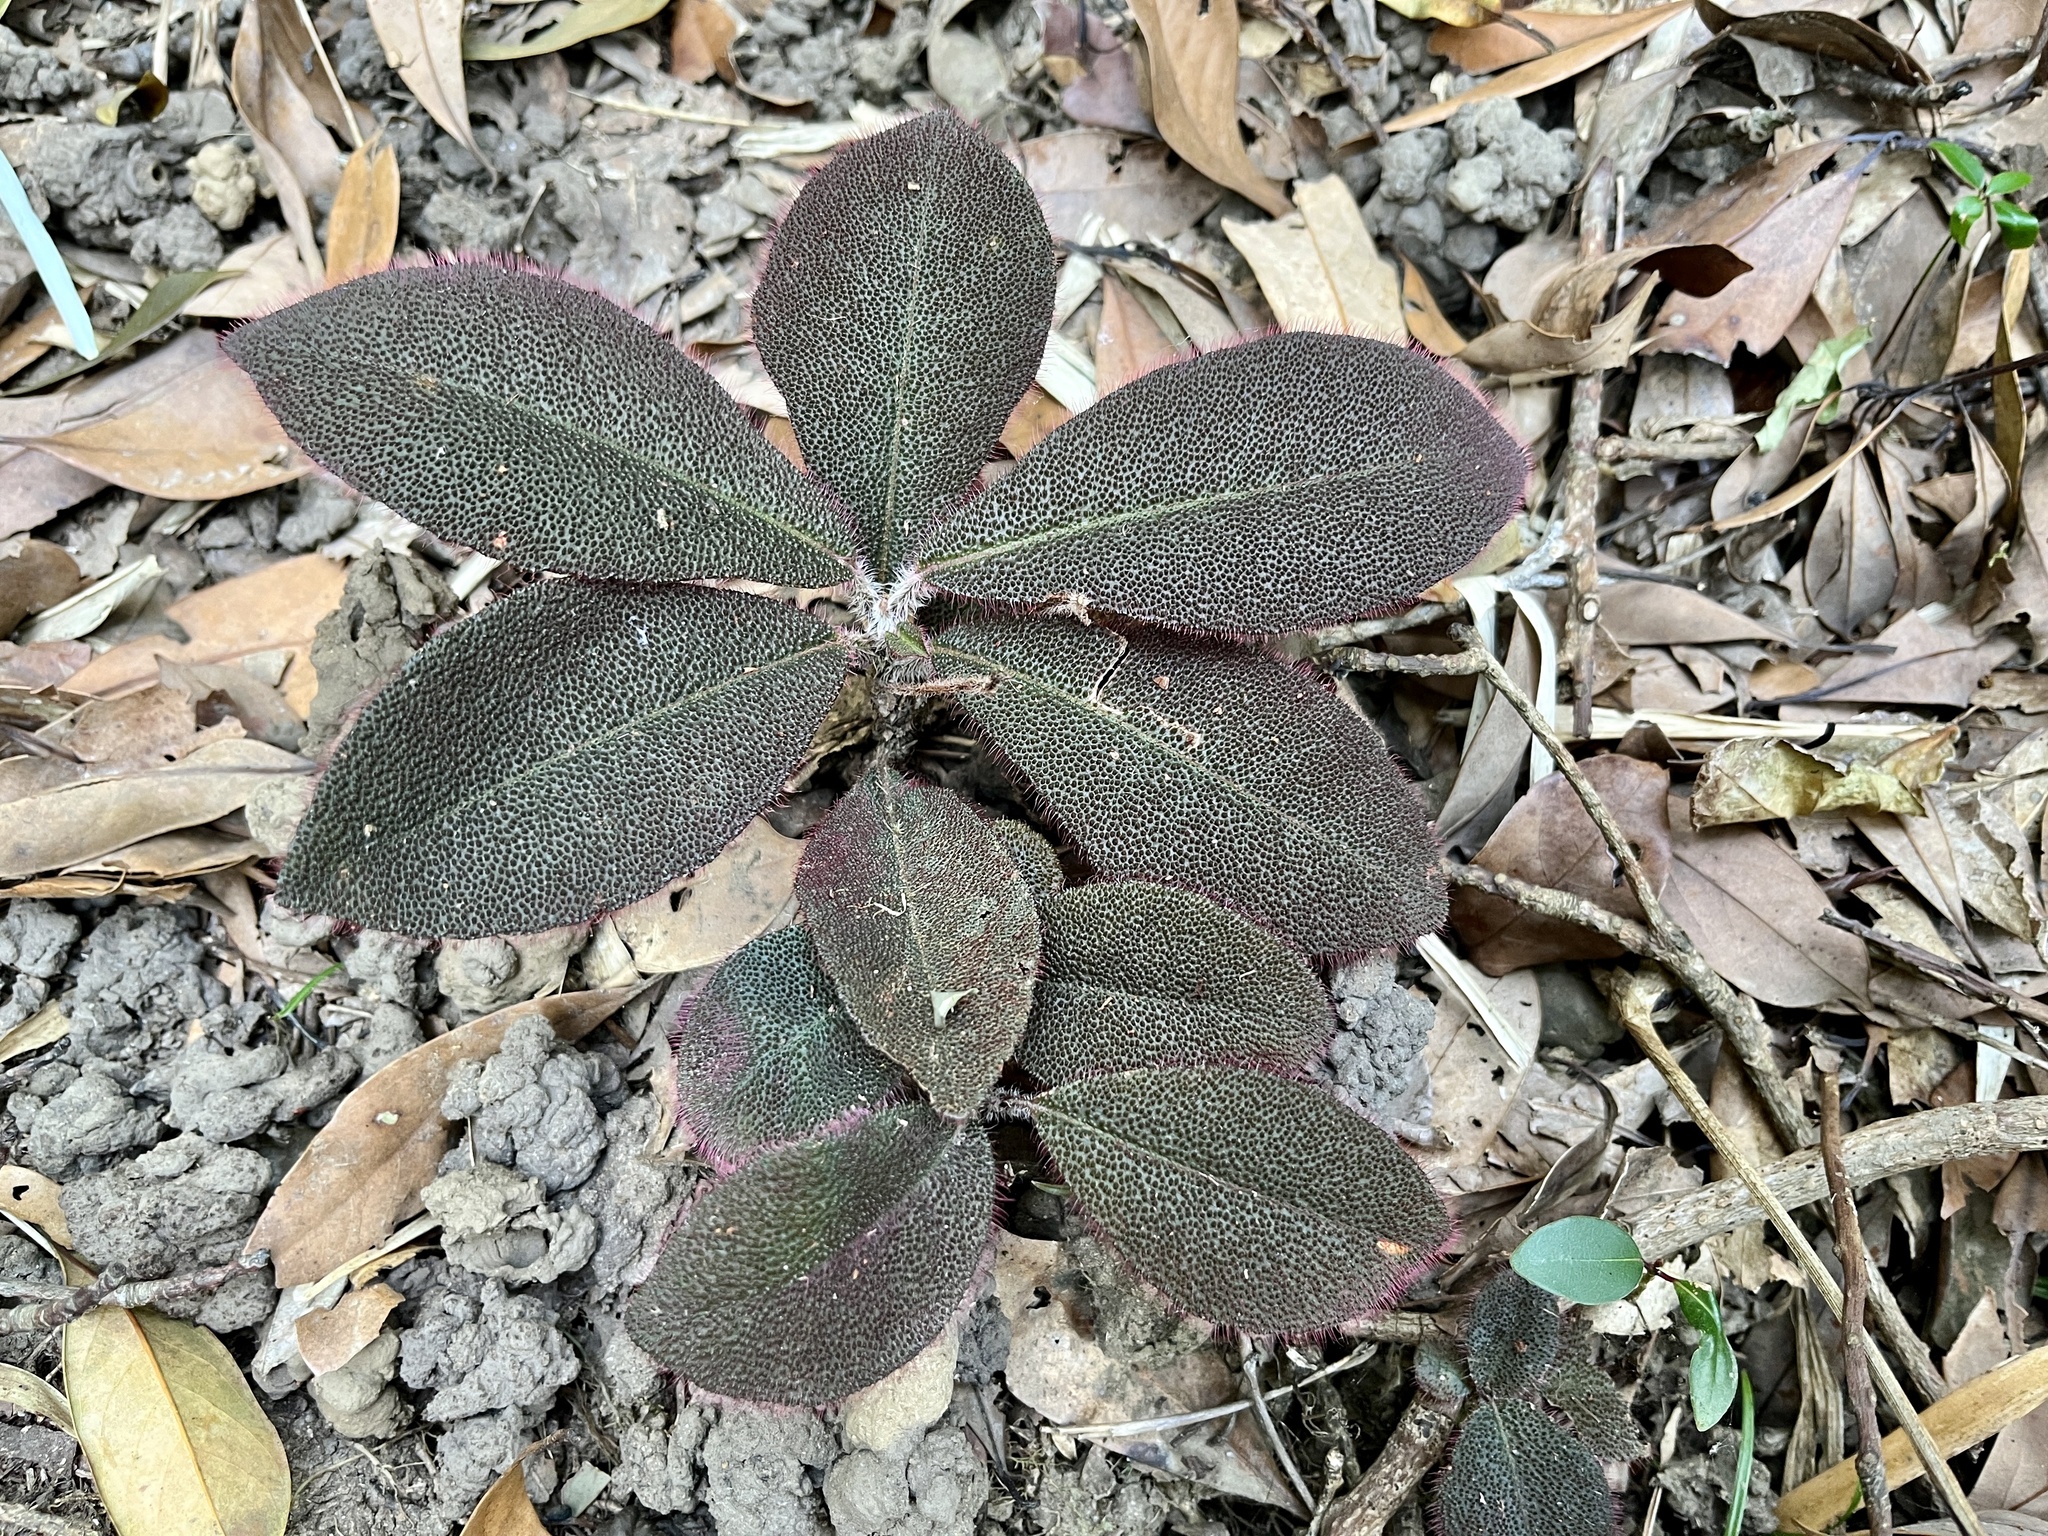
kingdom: Plantae
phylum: Tracheophyta
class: Magnoliopsida
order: Ericales
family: Primulaceae
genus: Ardisia
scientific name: Ardisia mamillata
